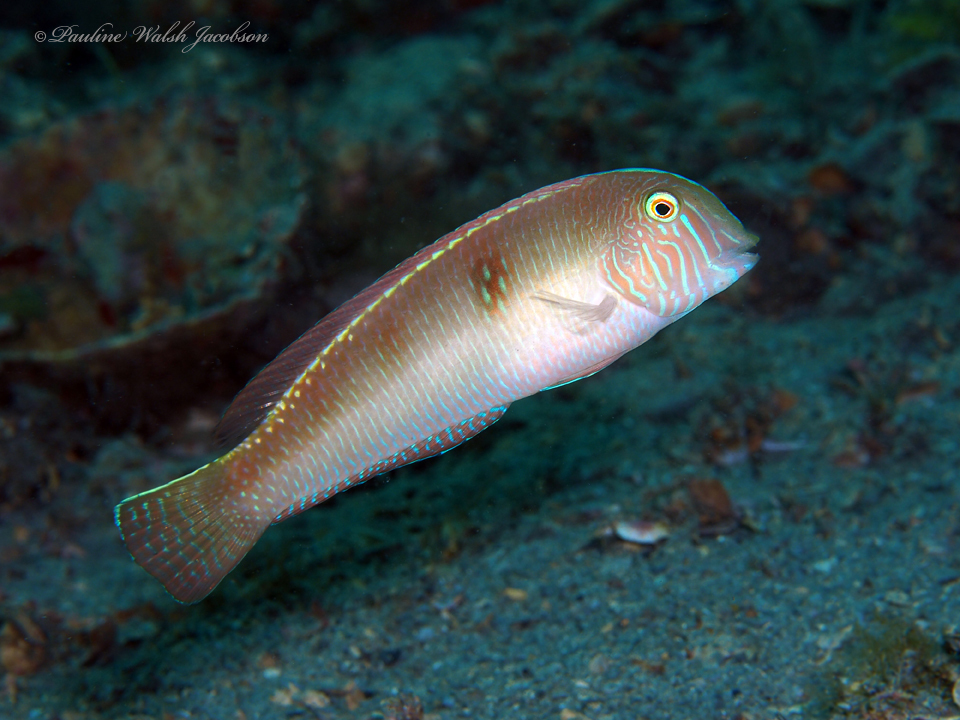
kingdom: Animalia
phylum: Chordata
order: Perciformes
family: Labridae
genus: Xyrichtys
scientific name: Xyrichtys novacula
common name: Pearly razorfish
